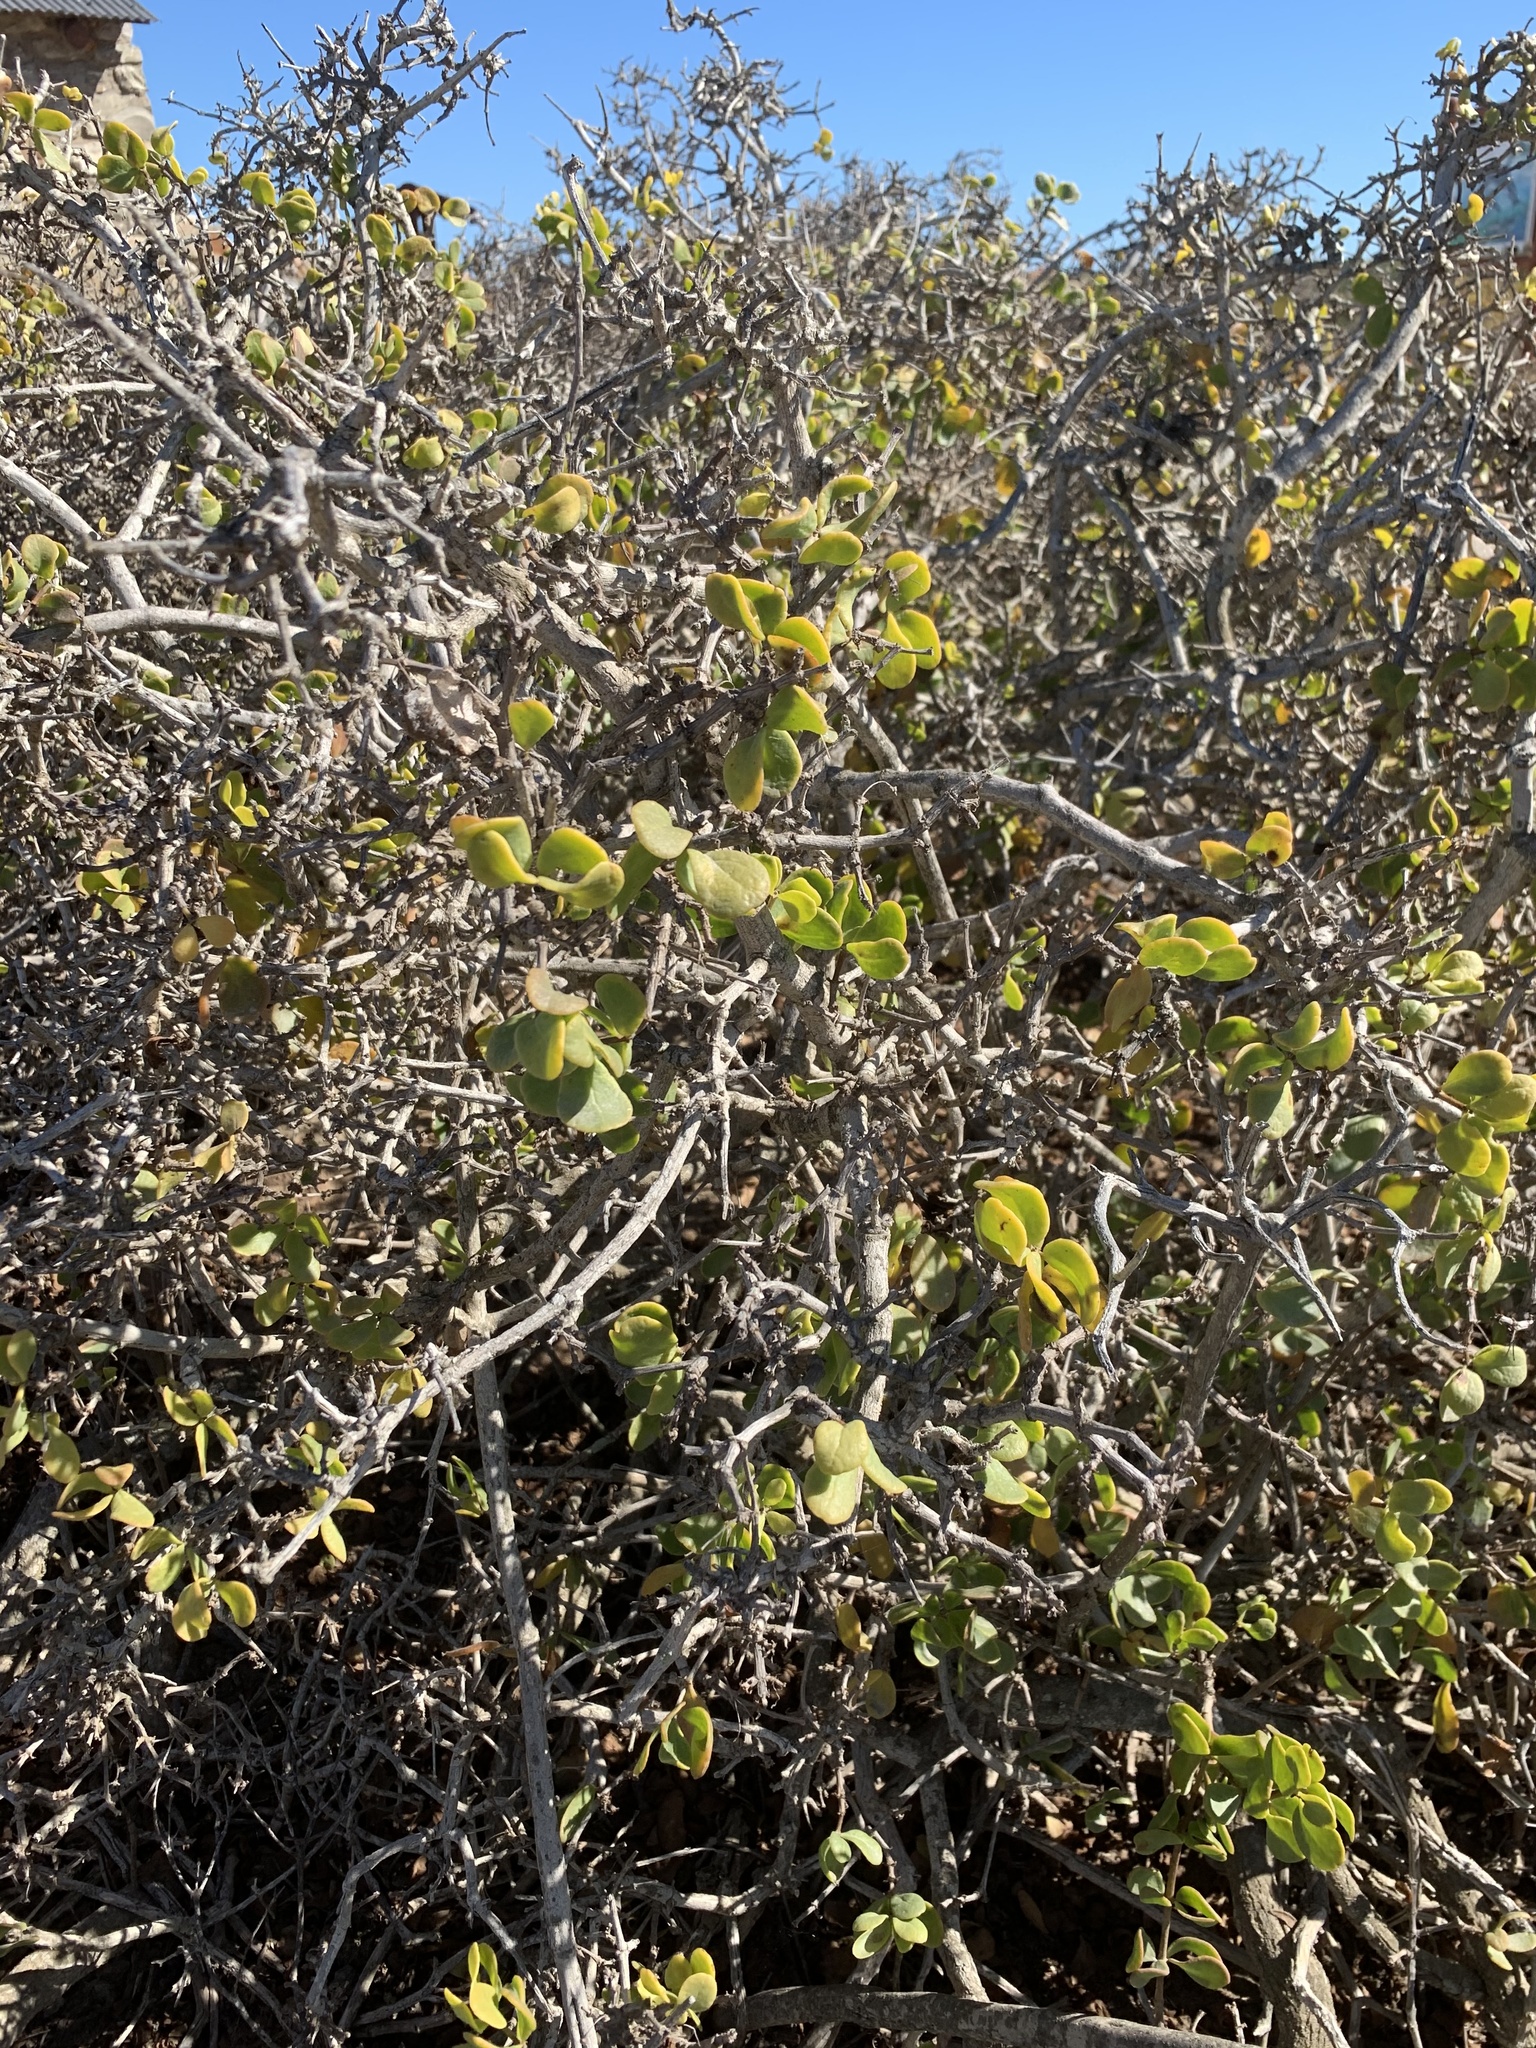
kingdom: Plantae
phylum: Tracheophyta
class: Magnoliopsida
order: Zygophyllales
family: Zygophyllaceae
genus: Roepera
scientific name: Roepera morgsana
